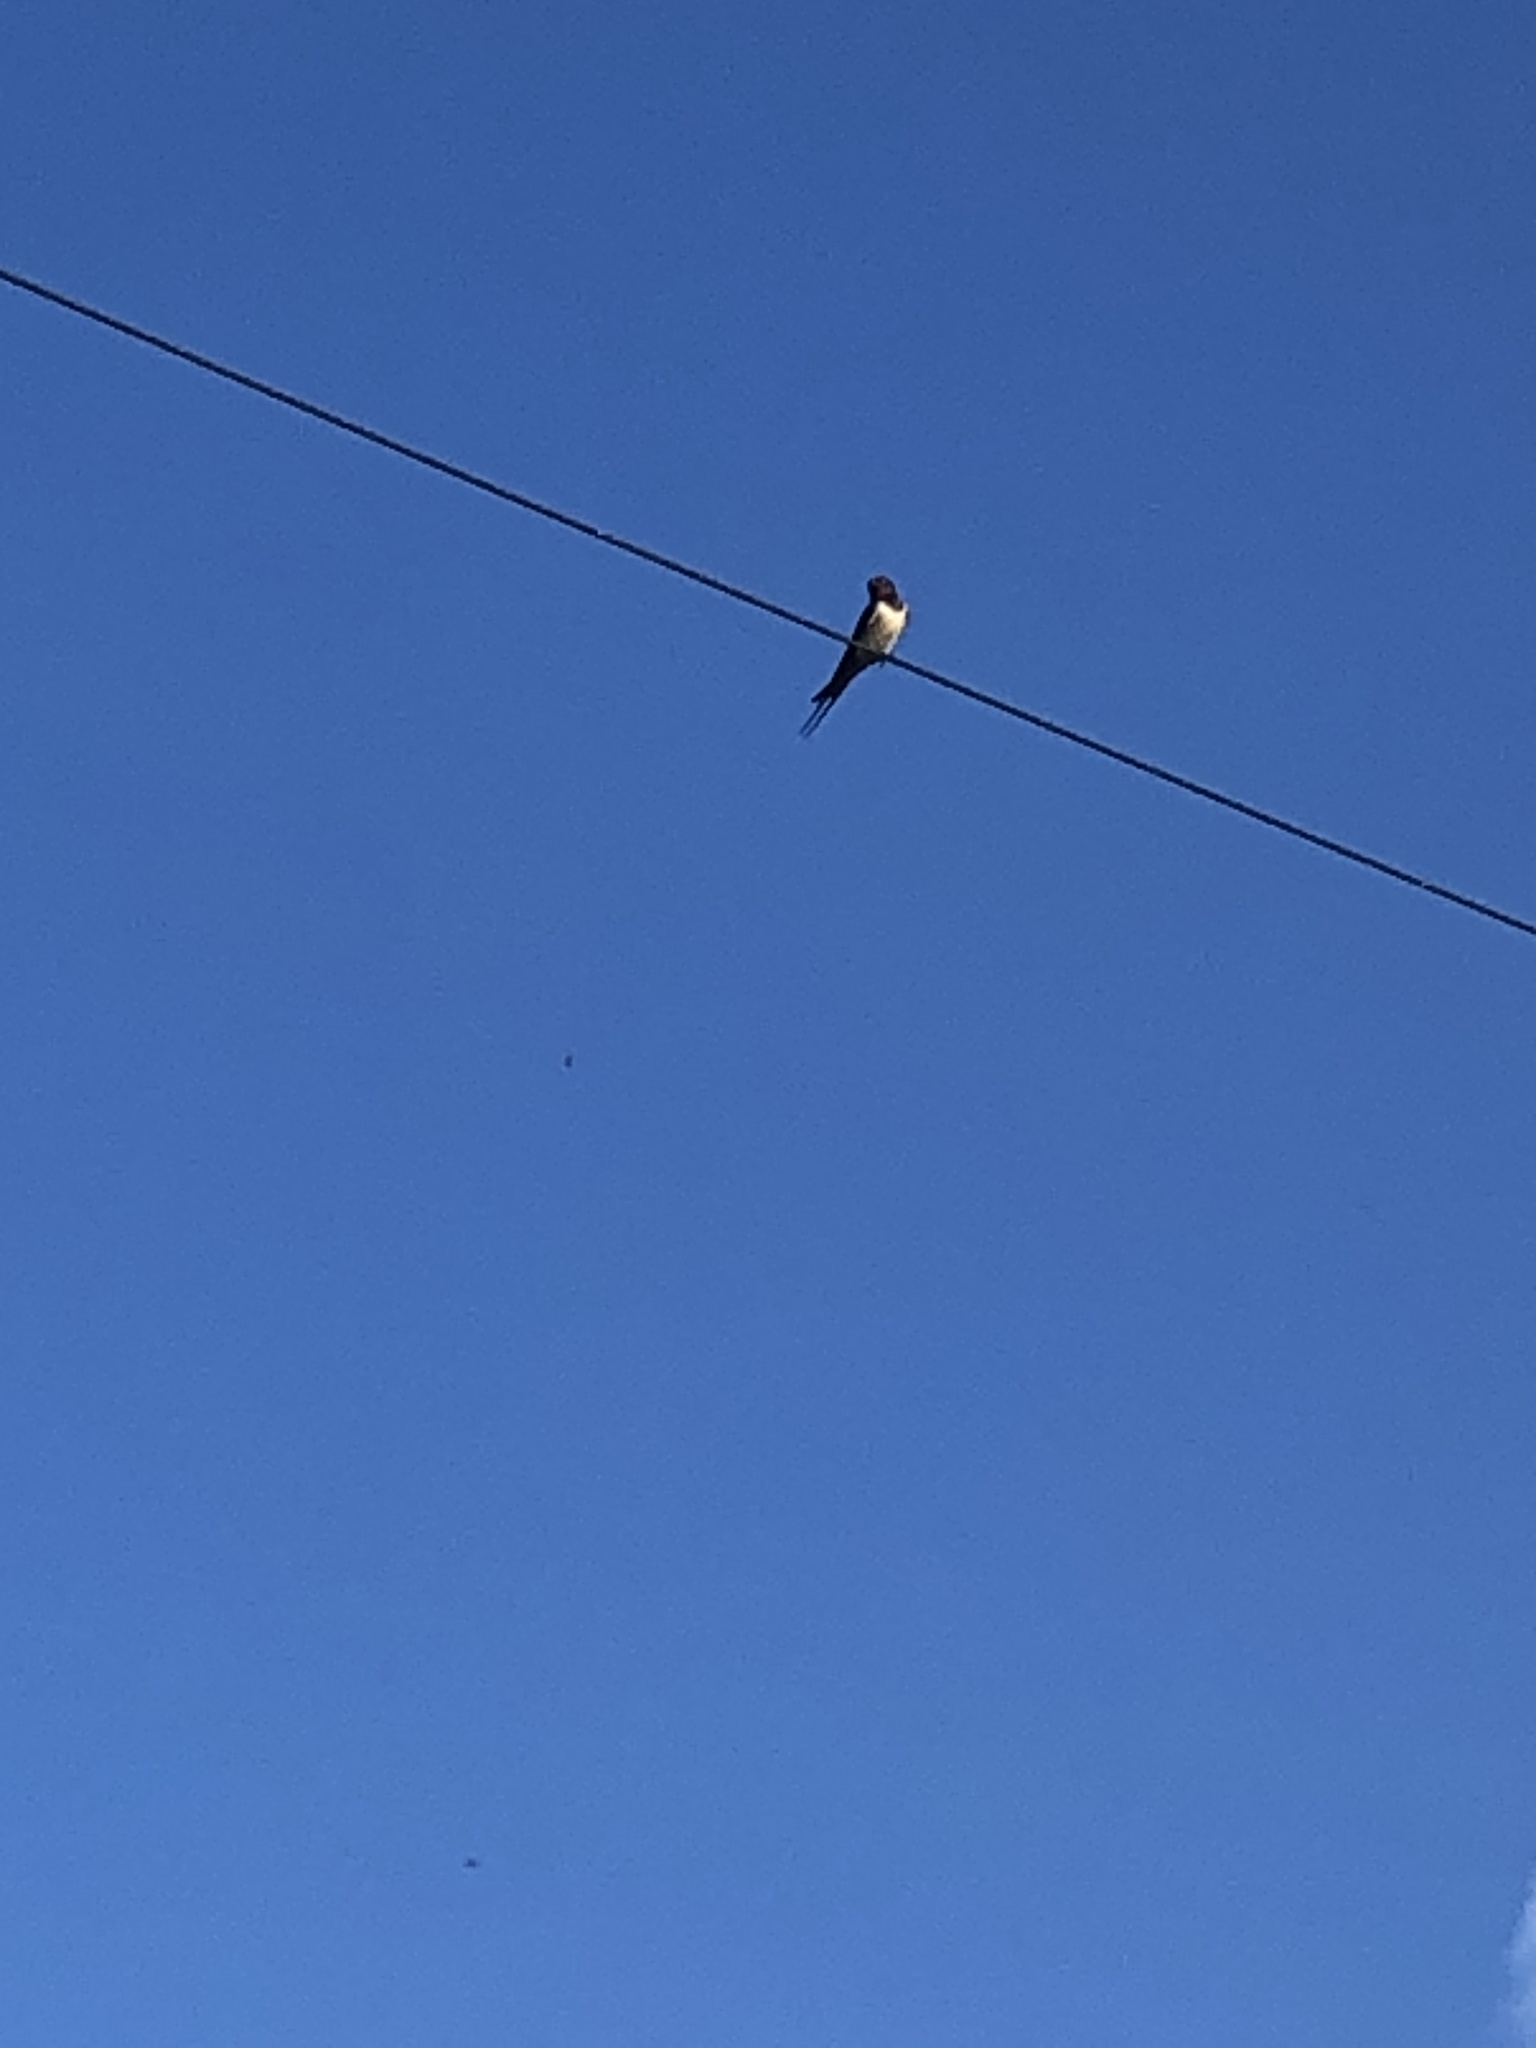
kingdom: Animalia
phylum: Chordata
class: Aves
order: Passeriformes
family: Hirundinidae
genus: Hirundo
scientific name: Hirundo rustica
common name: Barn swallow
